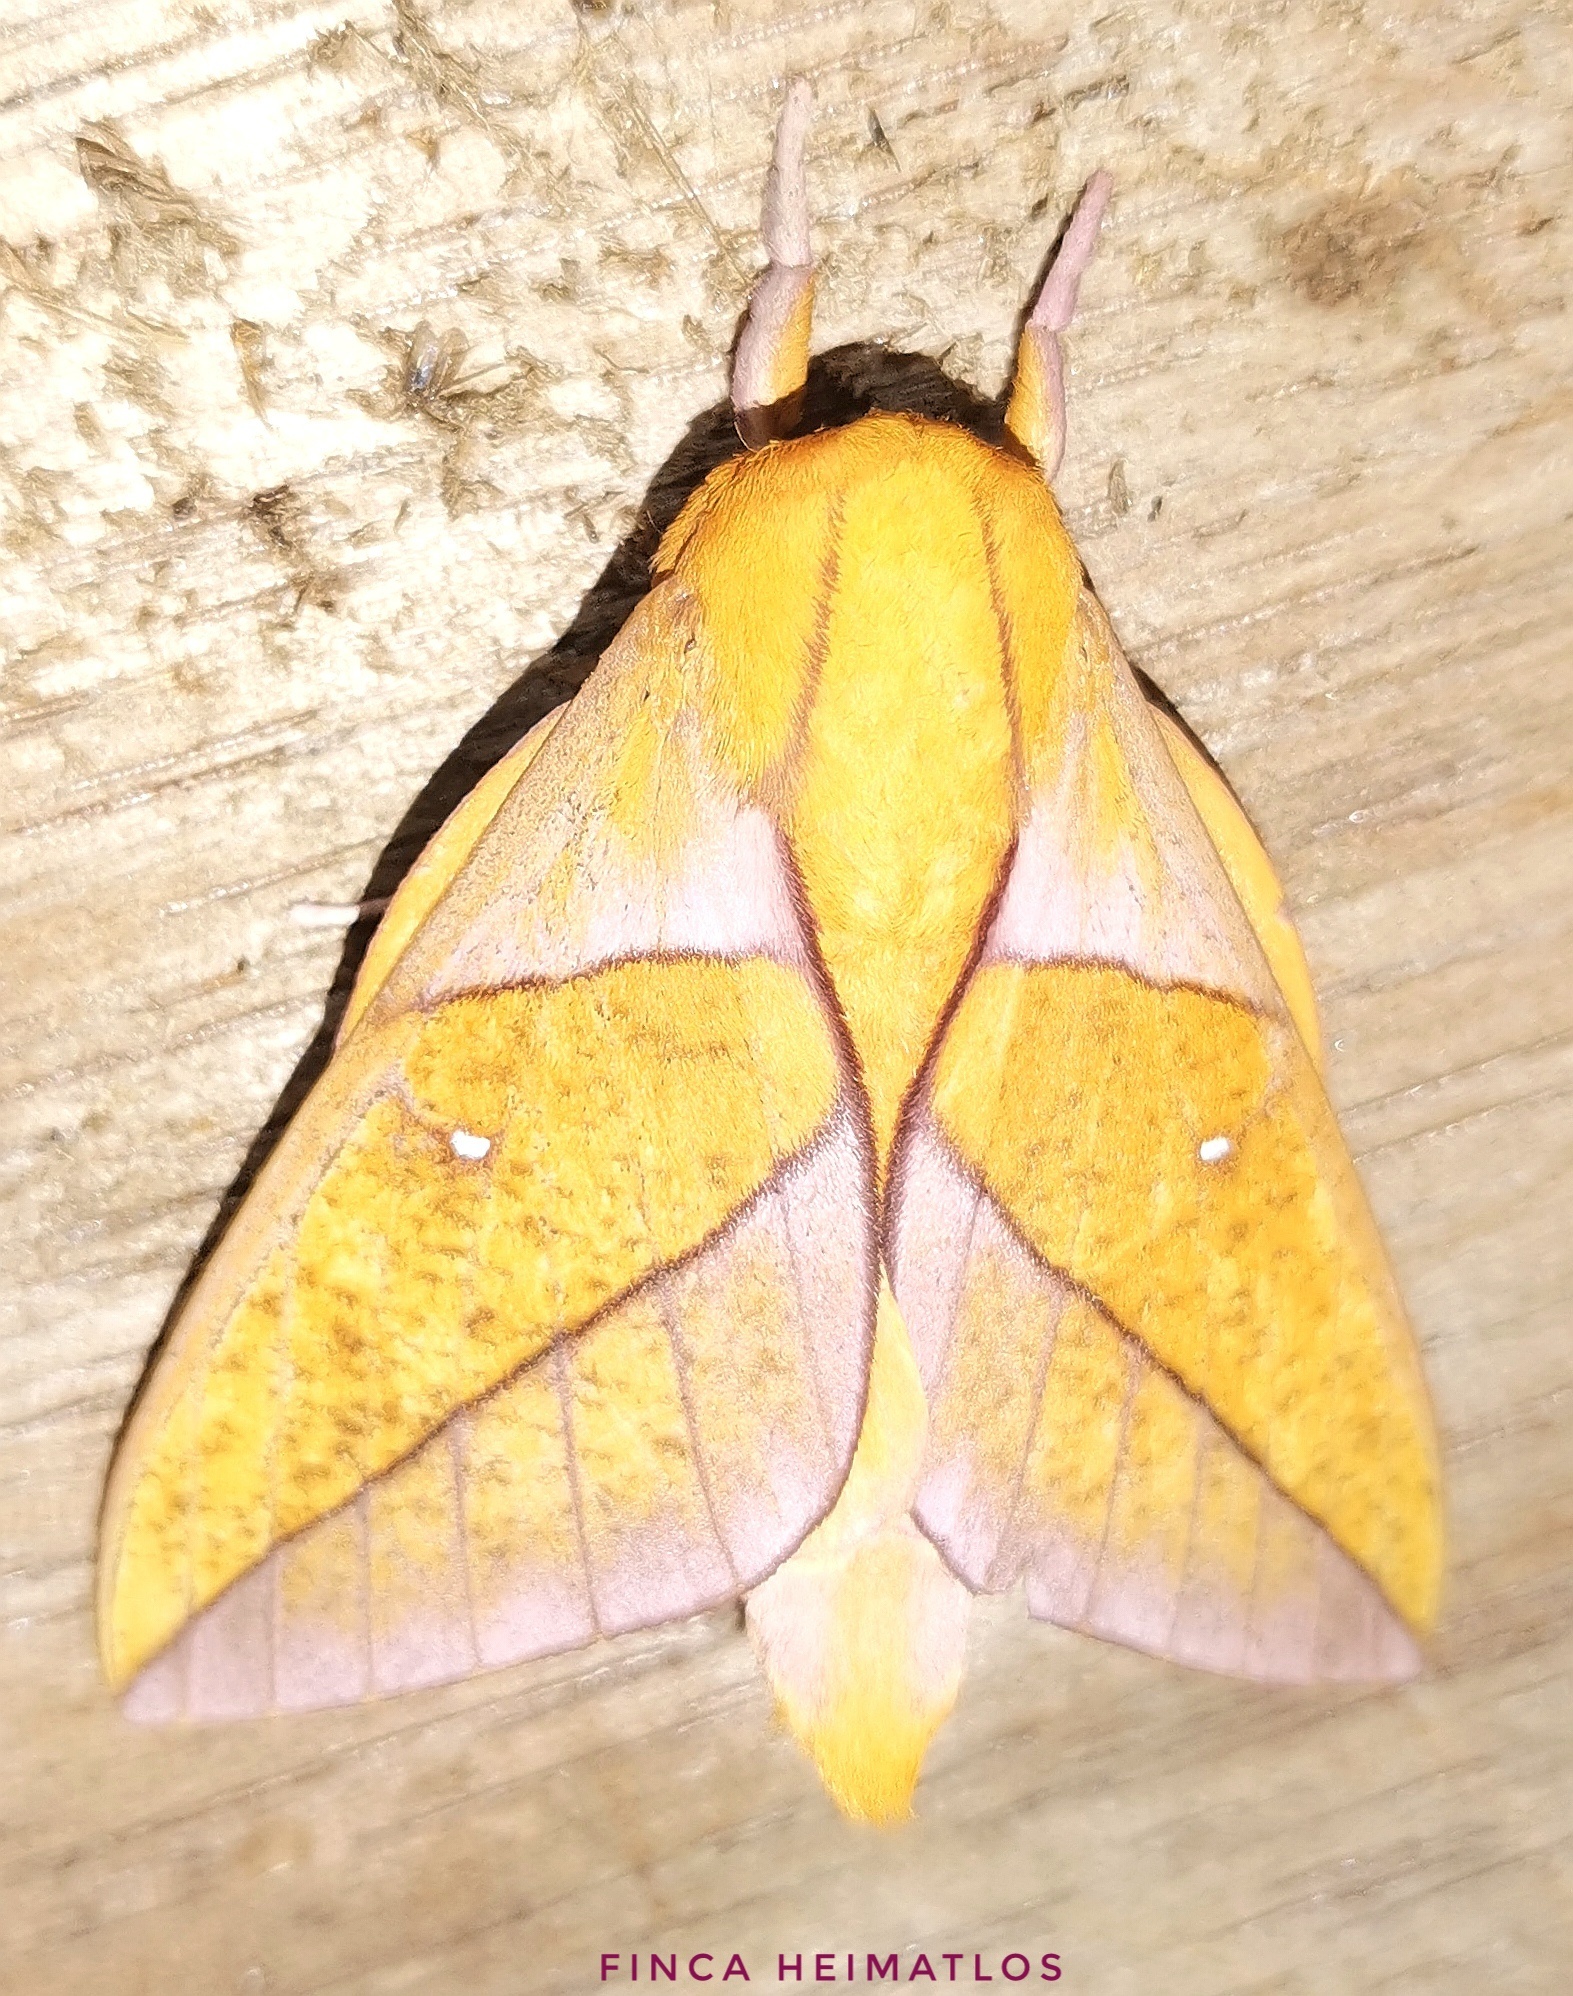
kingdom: Animalia
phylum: Arthropoda
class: Insecta
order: Lepidoptera
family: Saturniidae
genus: Adeloneivaia
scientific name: Adeloneivaia jason
